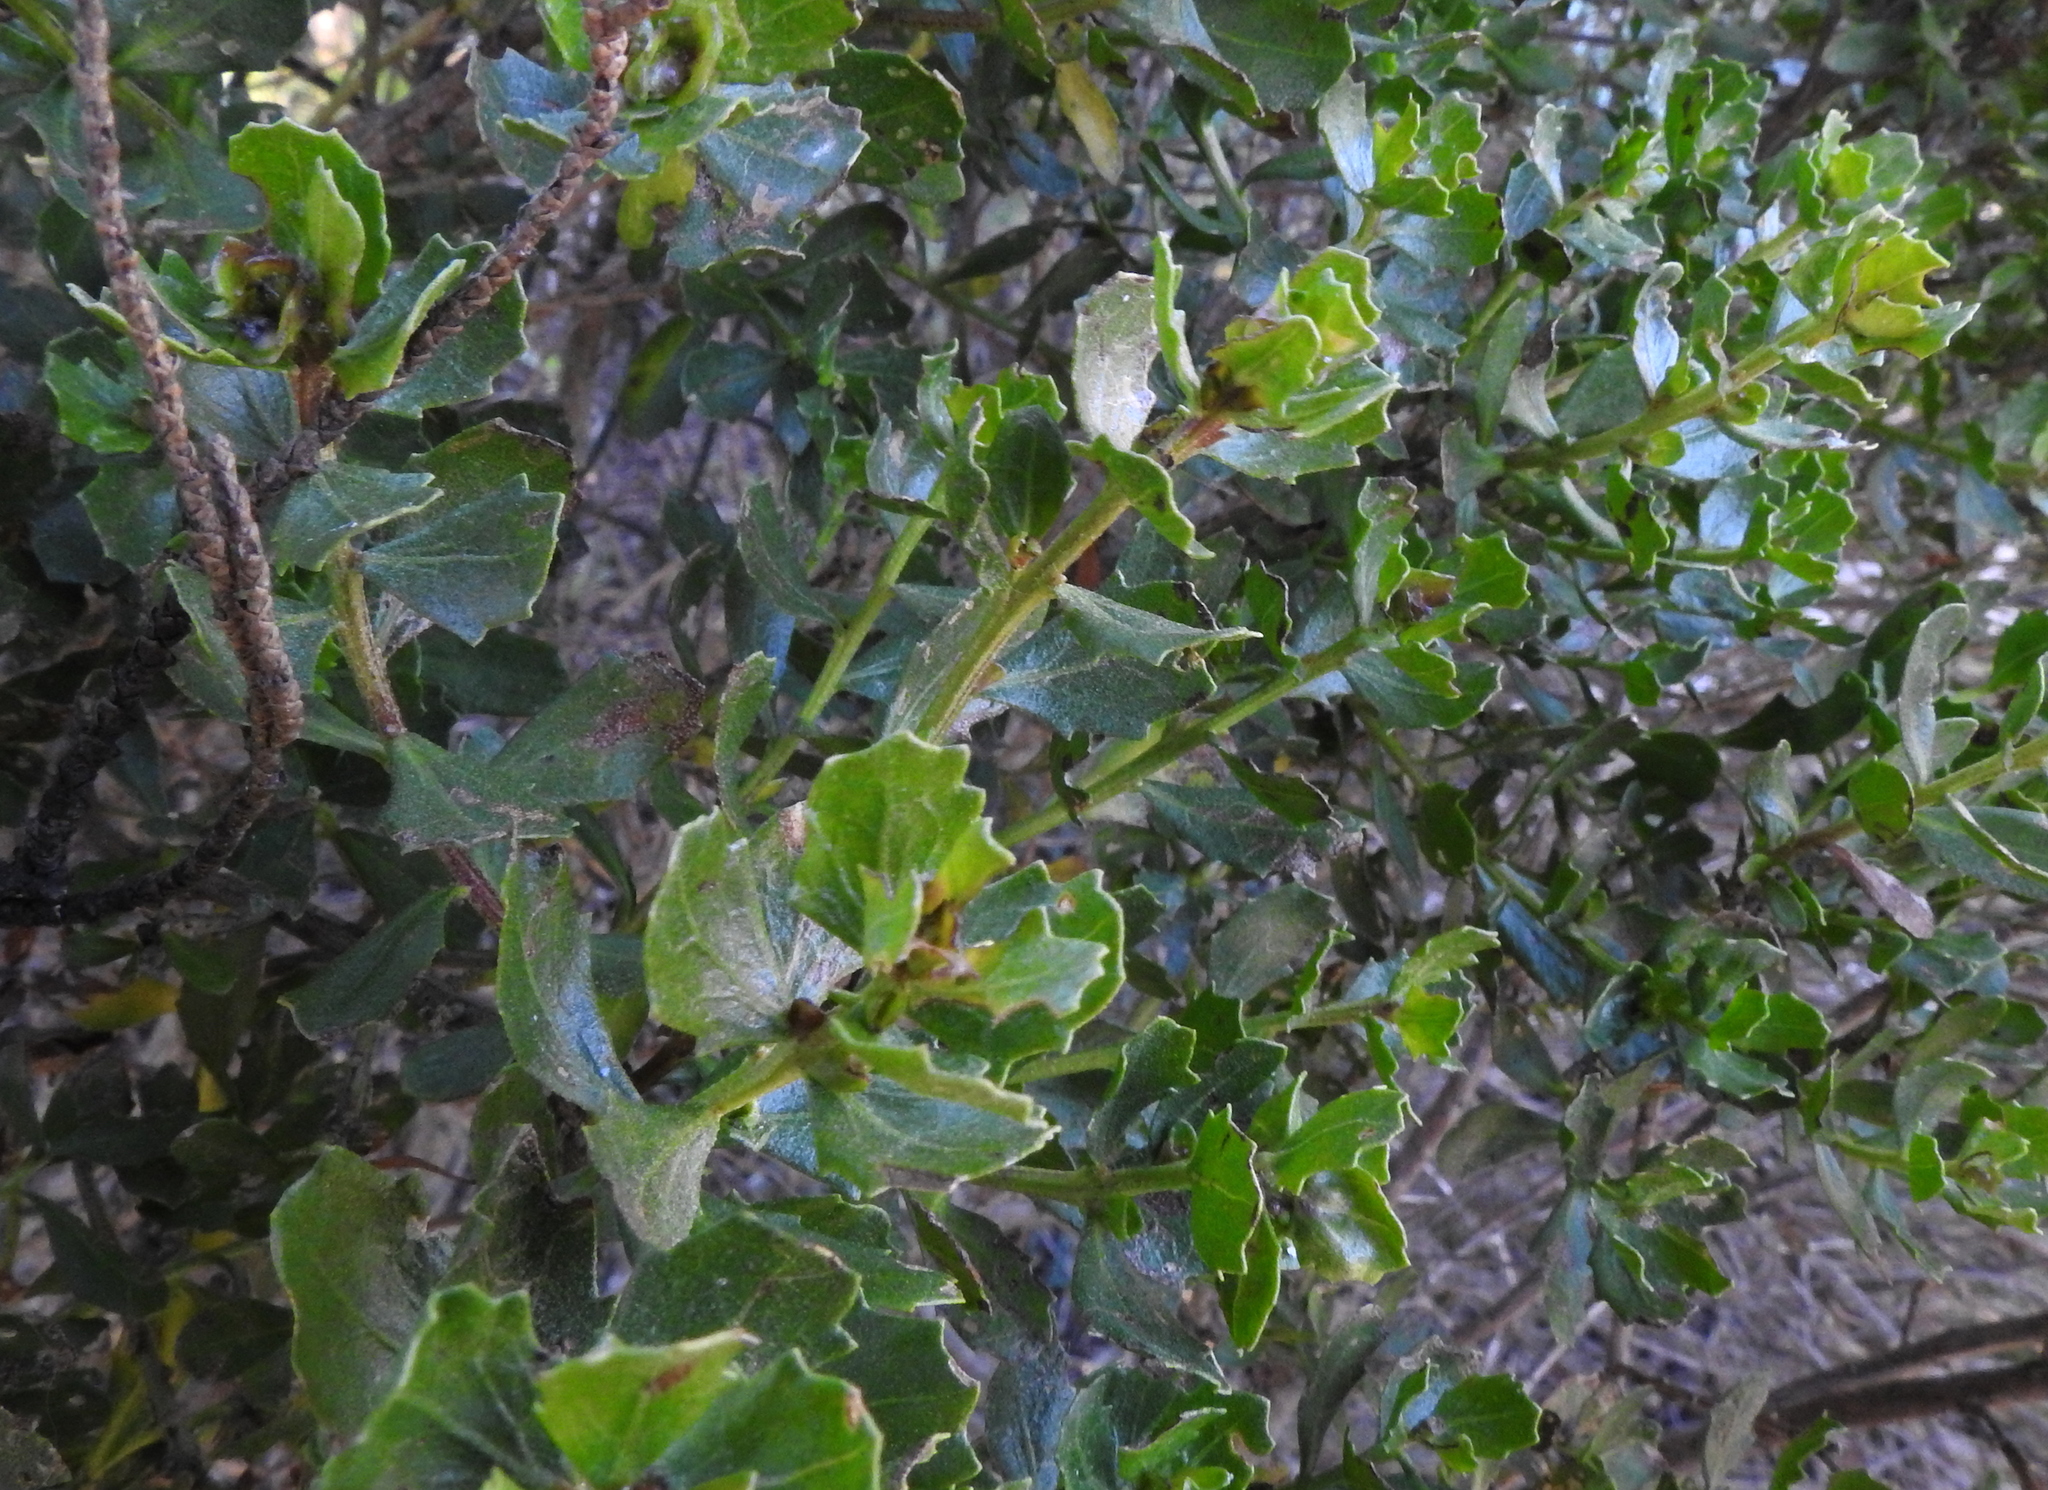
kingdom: Plantae
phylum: Tracheophyta
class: Magnoliopsida
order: Asterales
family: Asteraceae
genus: Baccharis
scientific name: Baccharis pilularis
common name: Coyotebrush
